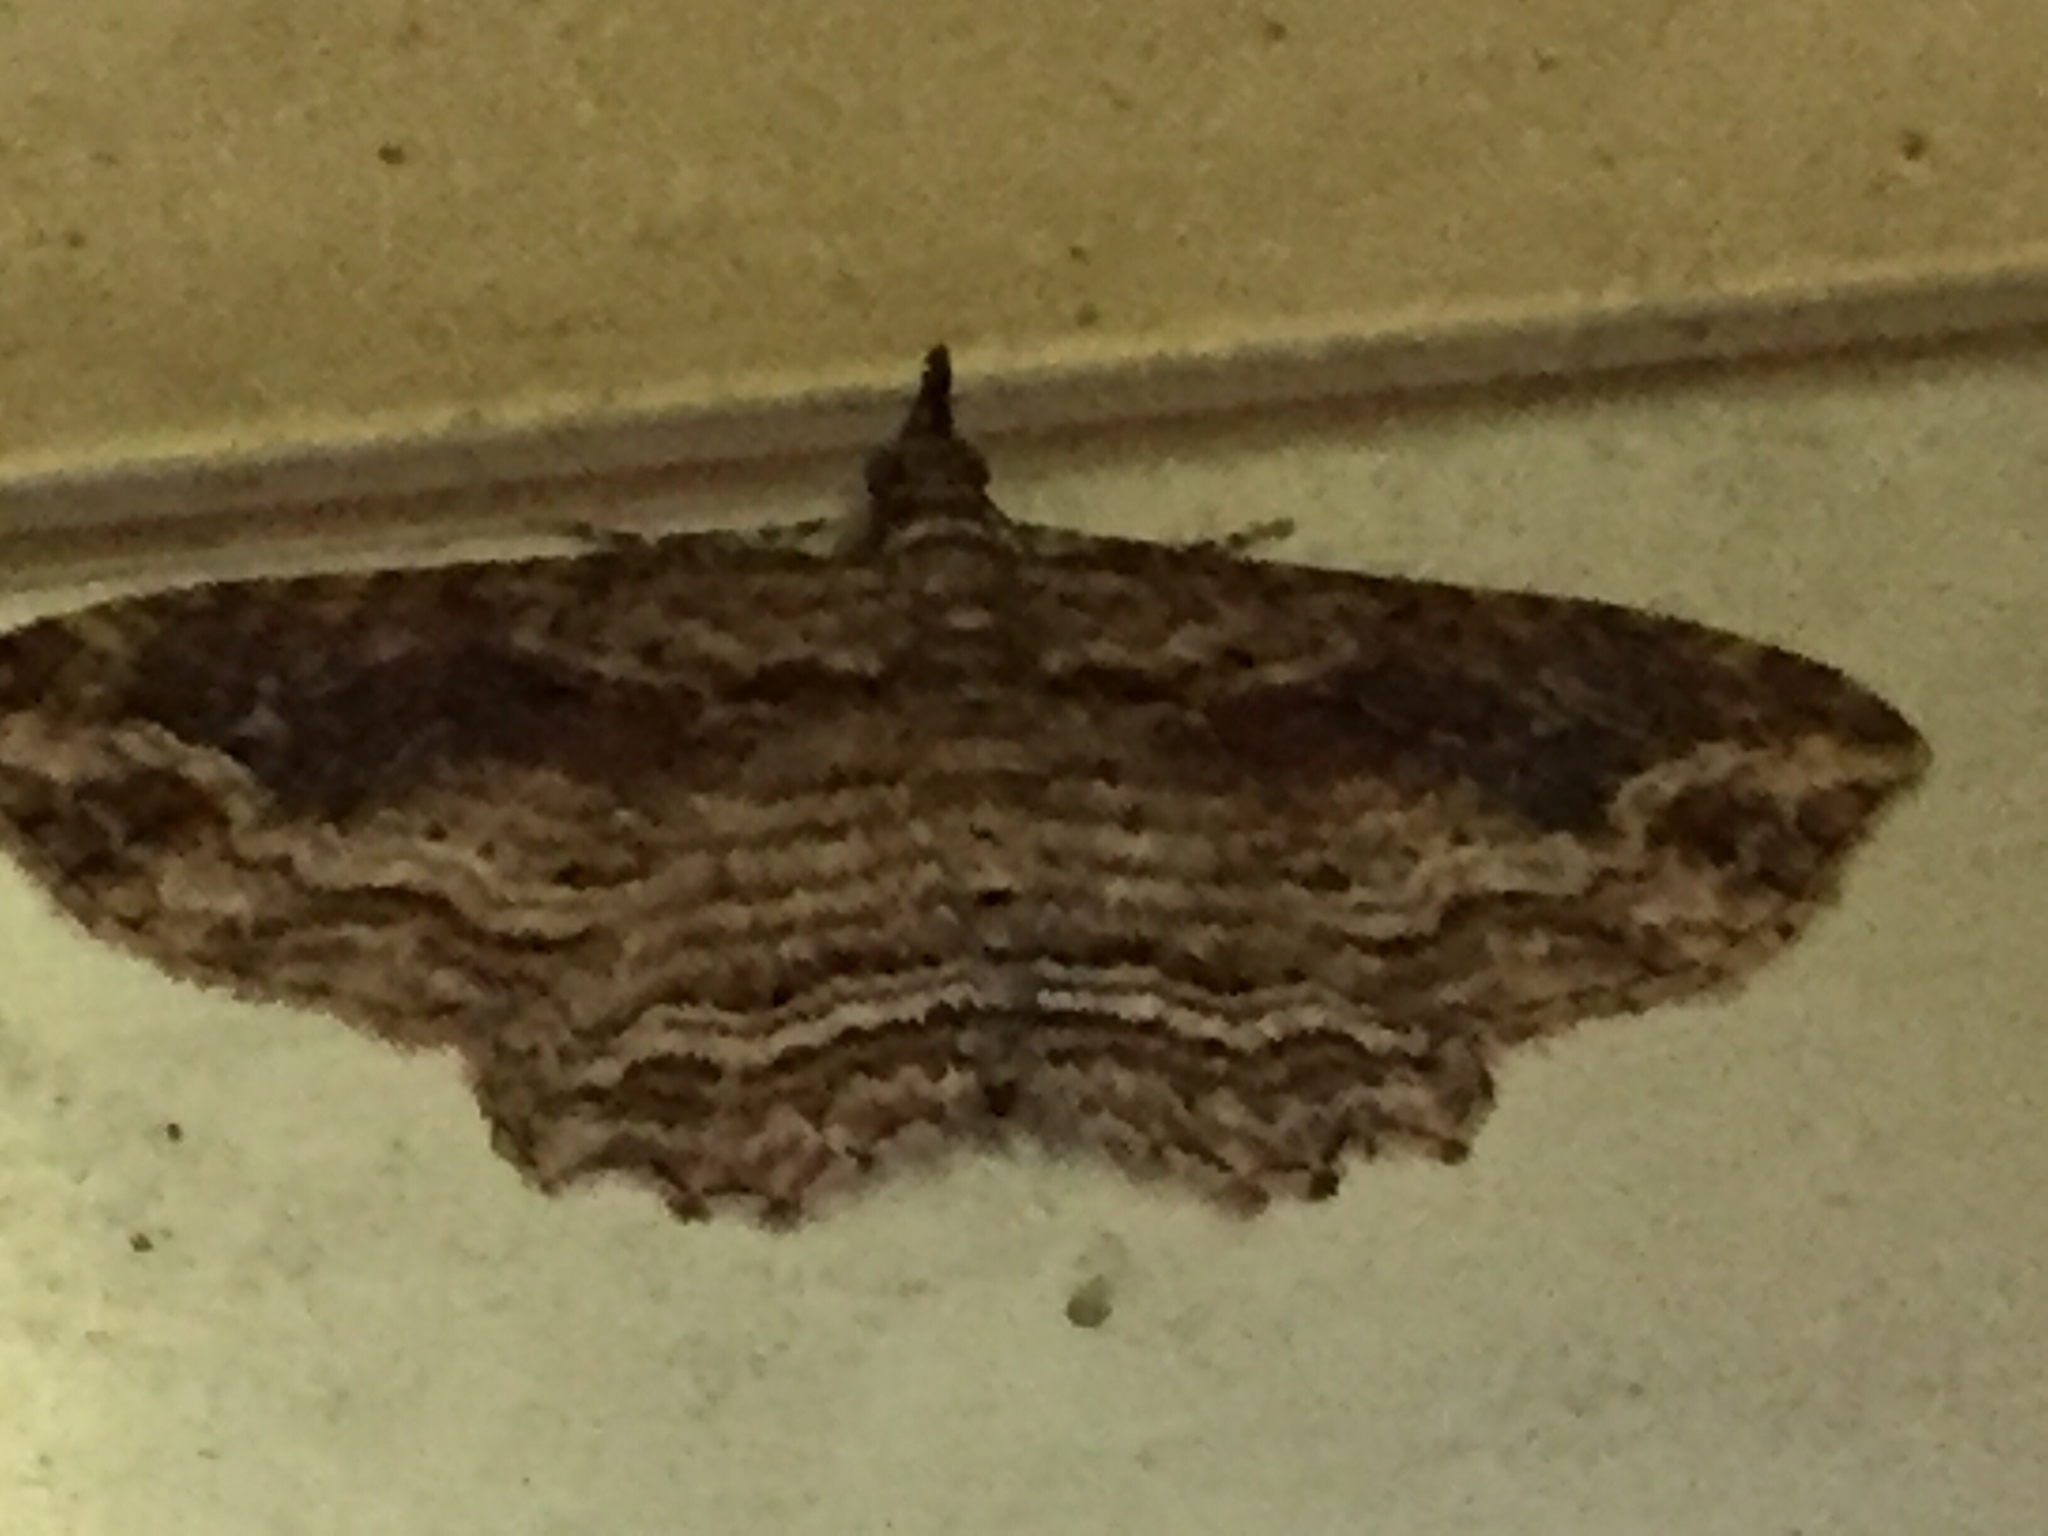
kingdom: Animalia
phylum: Arthropoda
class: Insecta
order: Lepidoptera
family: Geometridae
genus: Chloroclystis
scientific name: Chloroclystis filata
